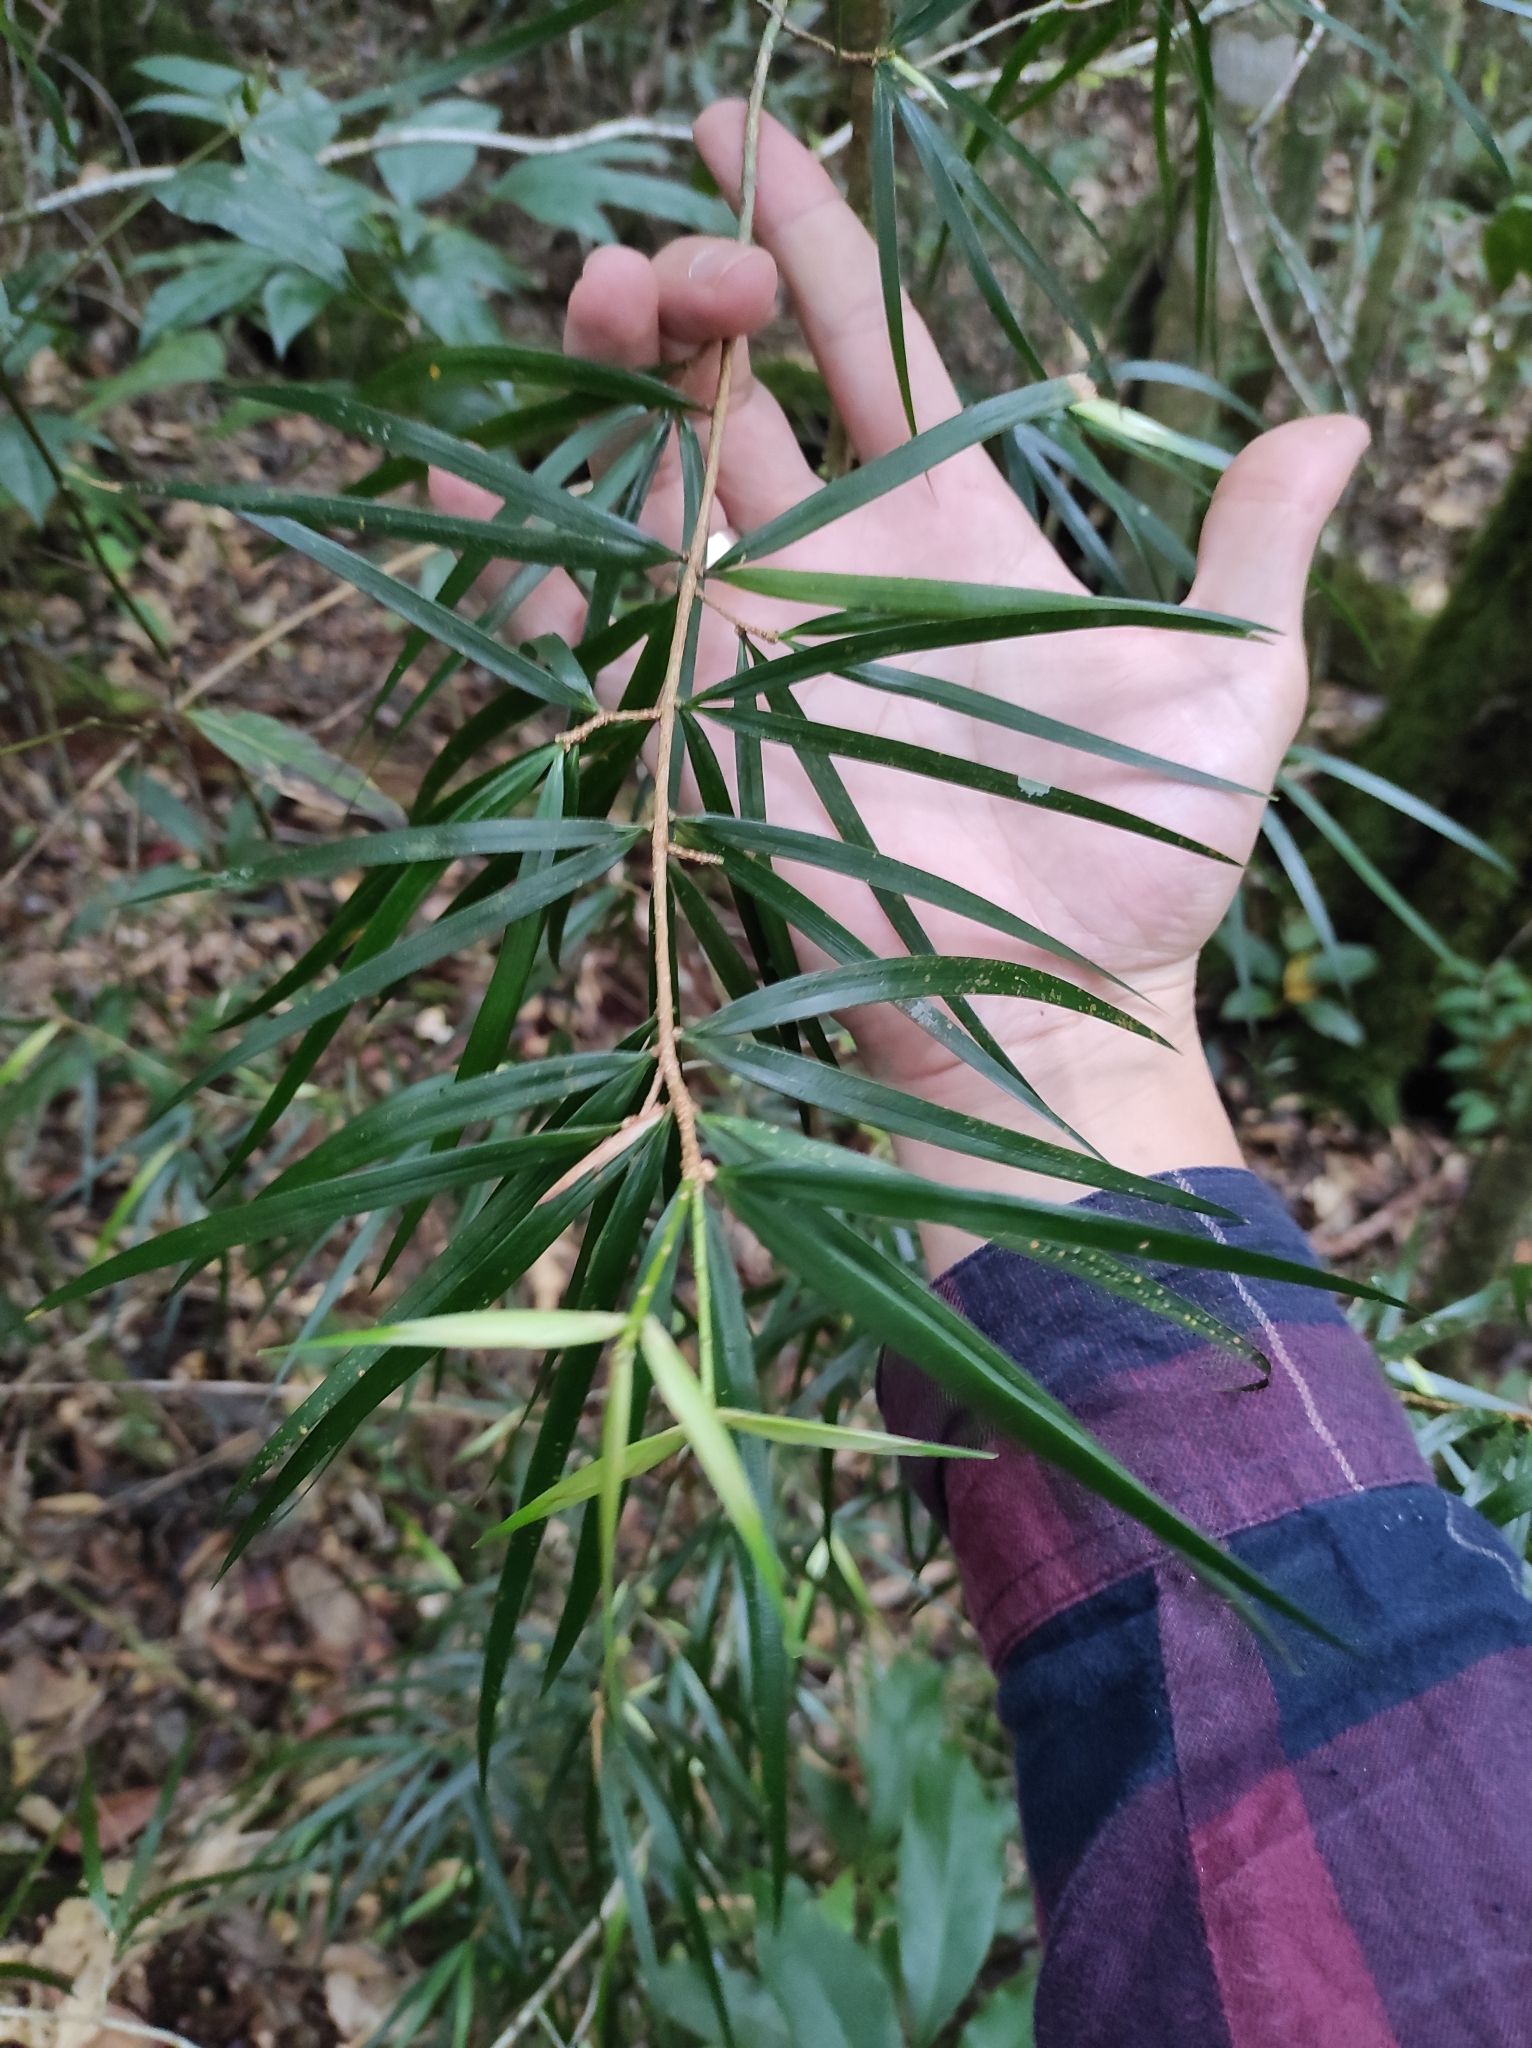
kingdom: Plantae
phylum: Tracheophyta
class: Pinopsida
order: Pinales
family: Pinaceae
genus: Pinus
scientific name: Pinus krempfii
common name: Krempf's pine
